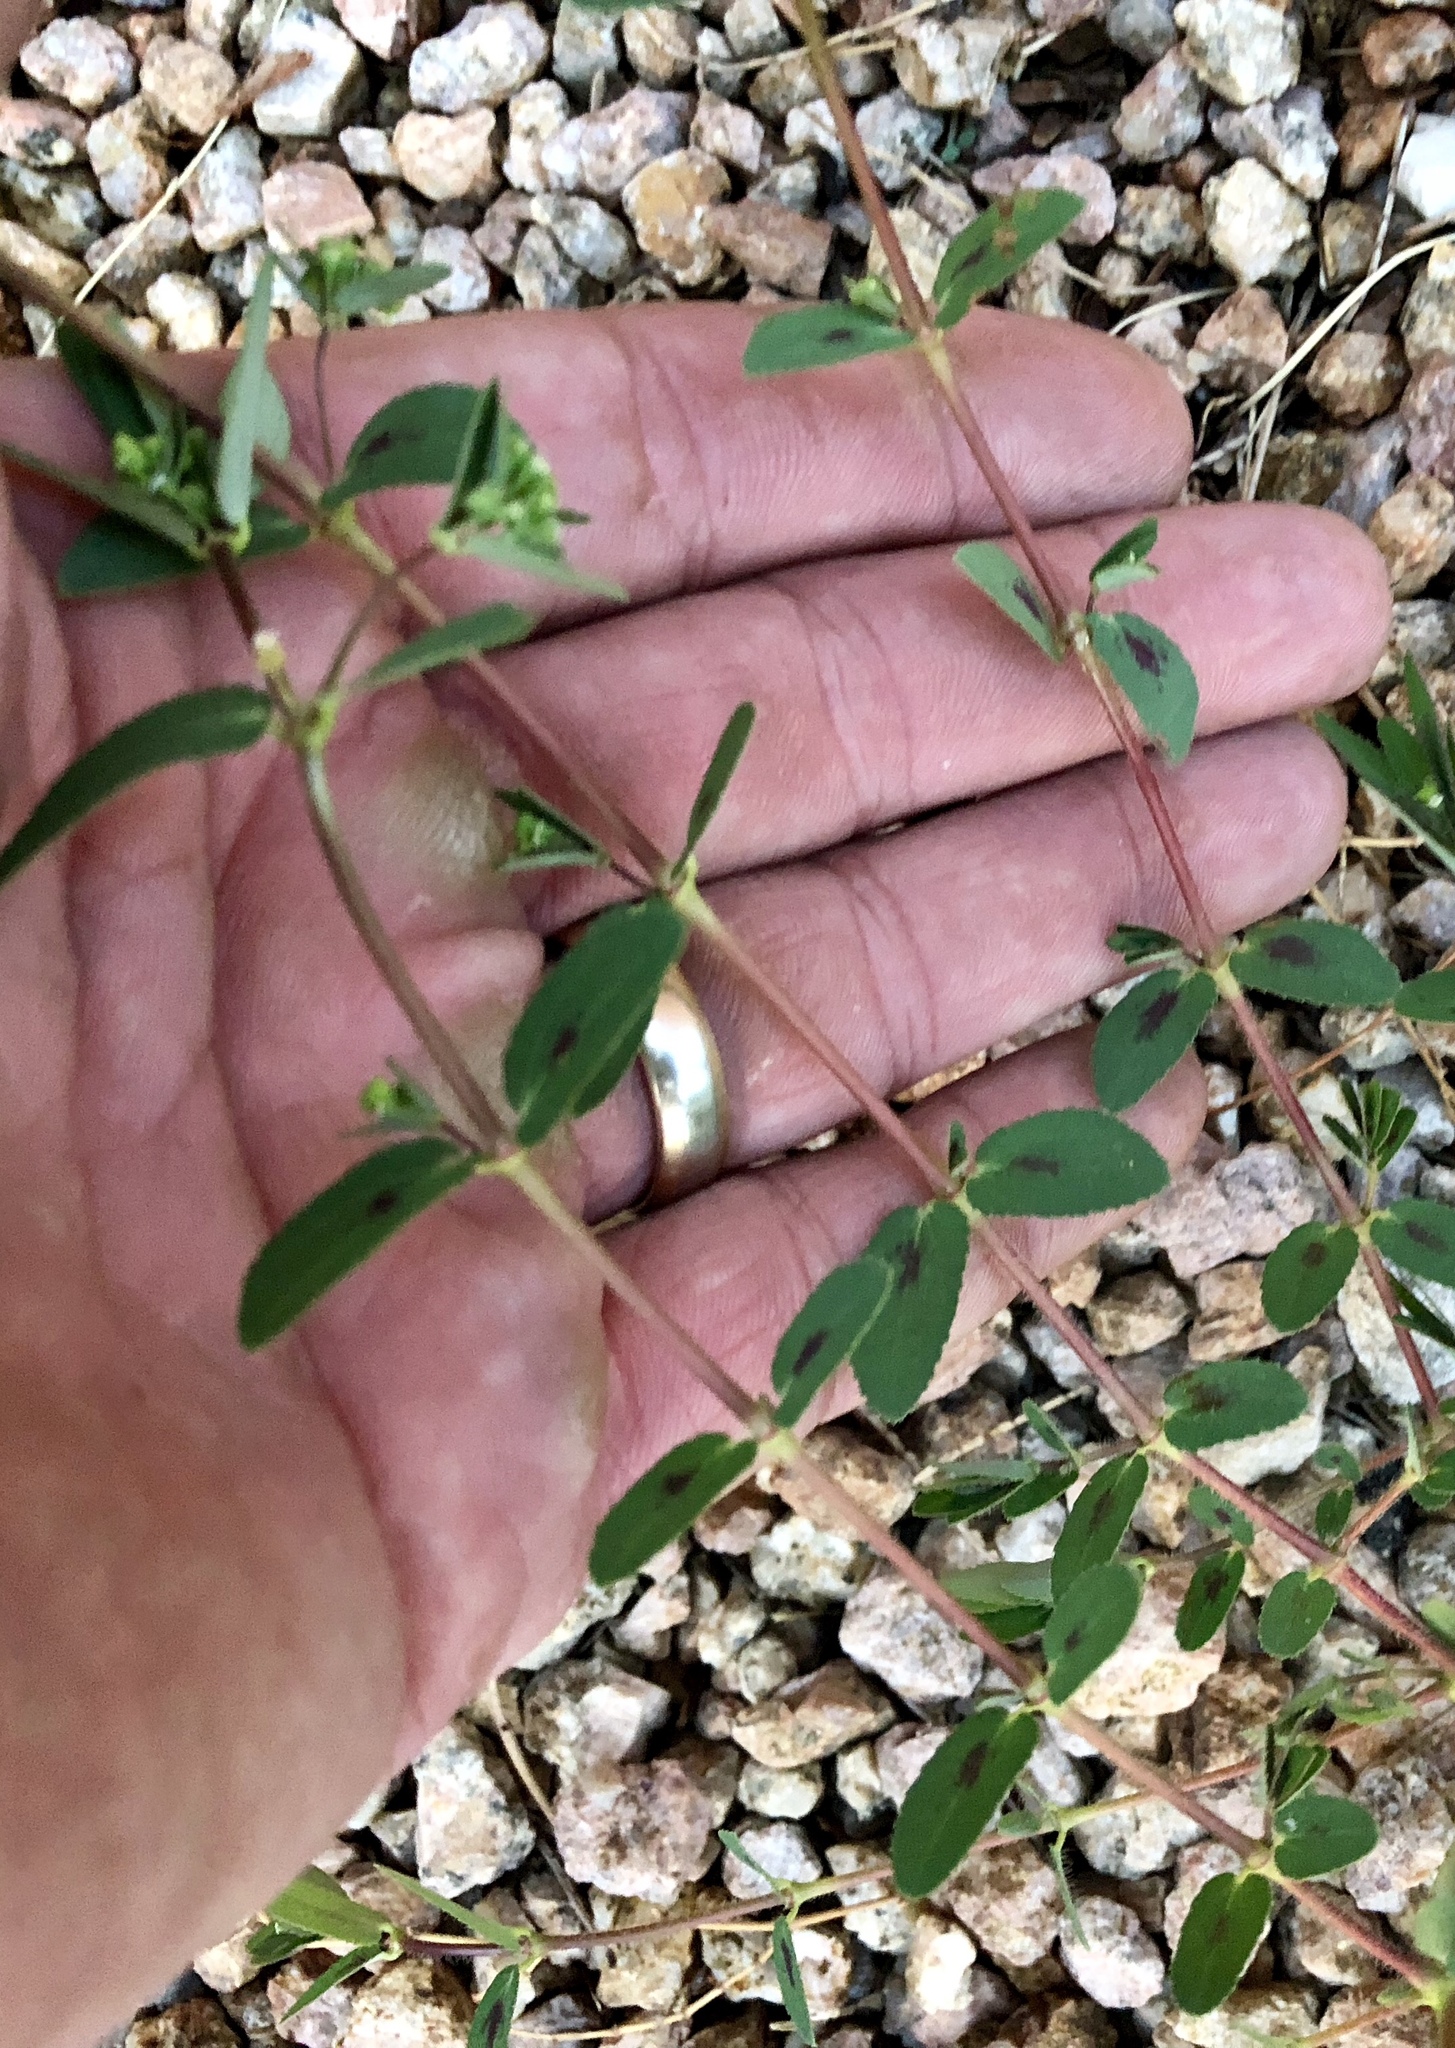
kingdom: Plantae
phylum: Tracheophyta
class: Magnoliopsida
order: Malpighiales
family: Euphorbiaceae
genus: Euphorbia
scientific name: Euphorbia hyssopifolia
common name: Hyssopleaf sandmat
